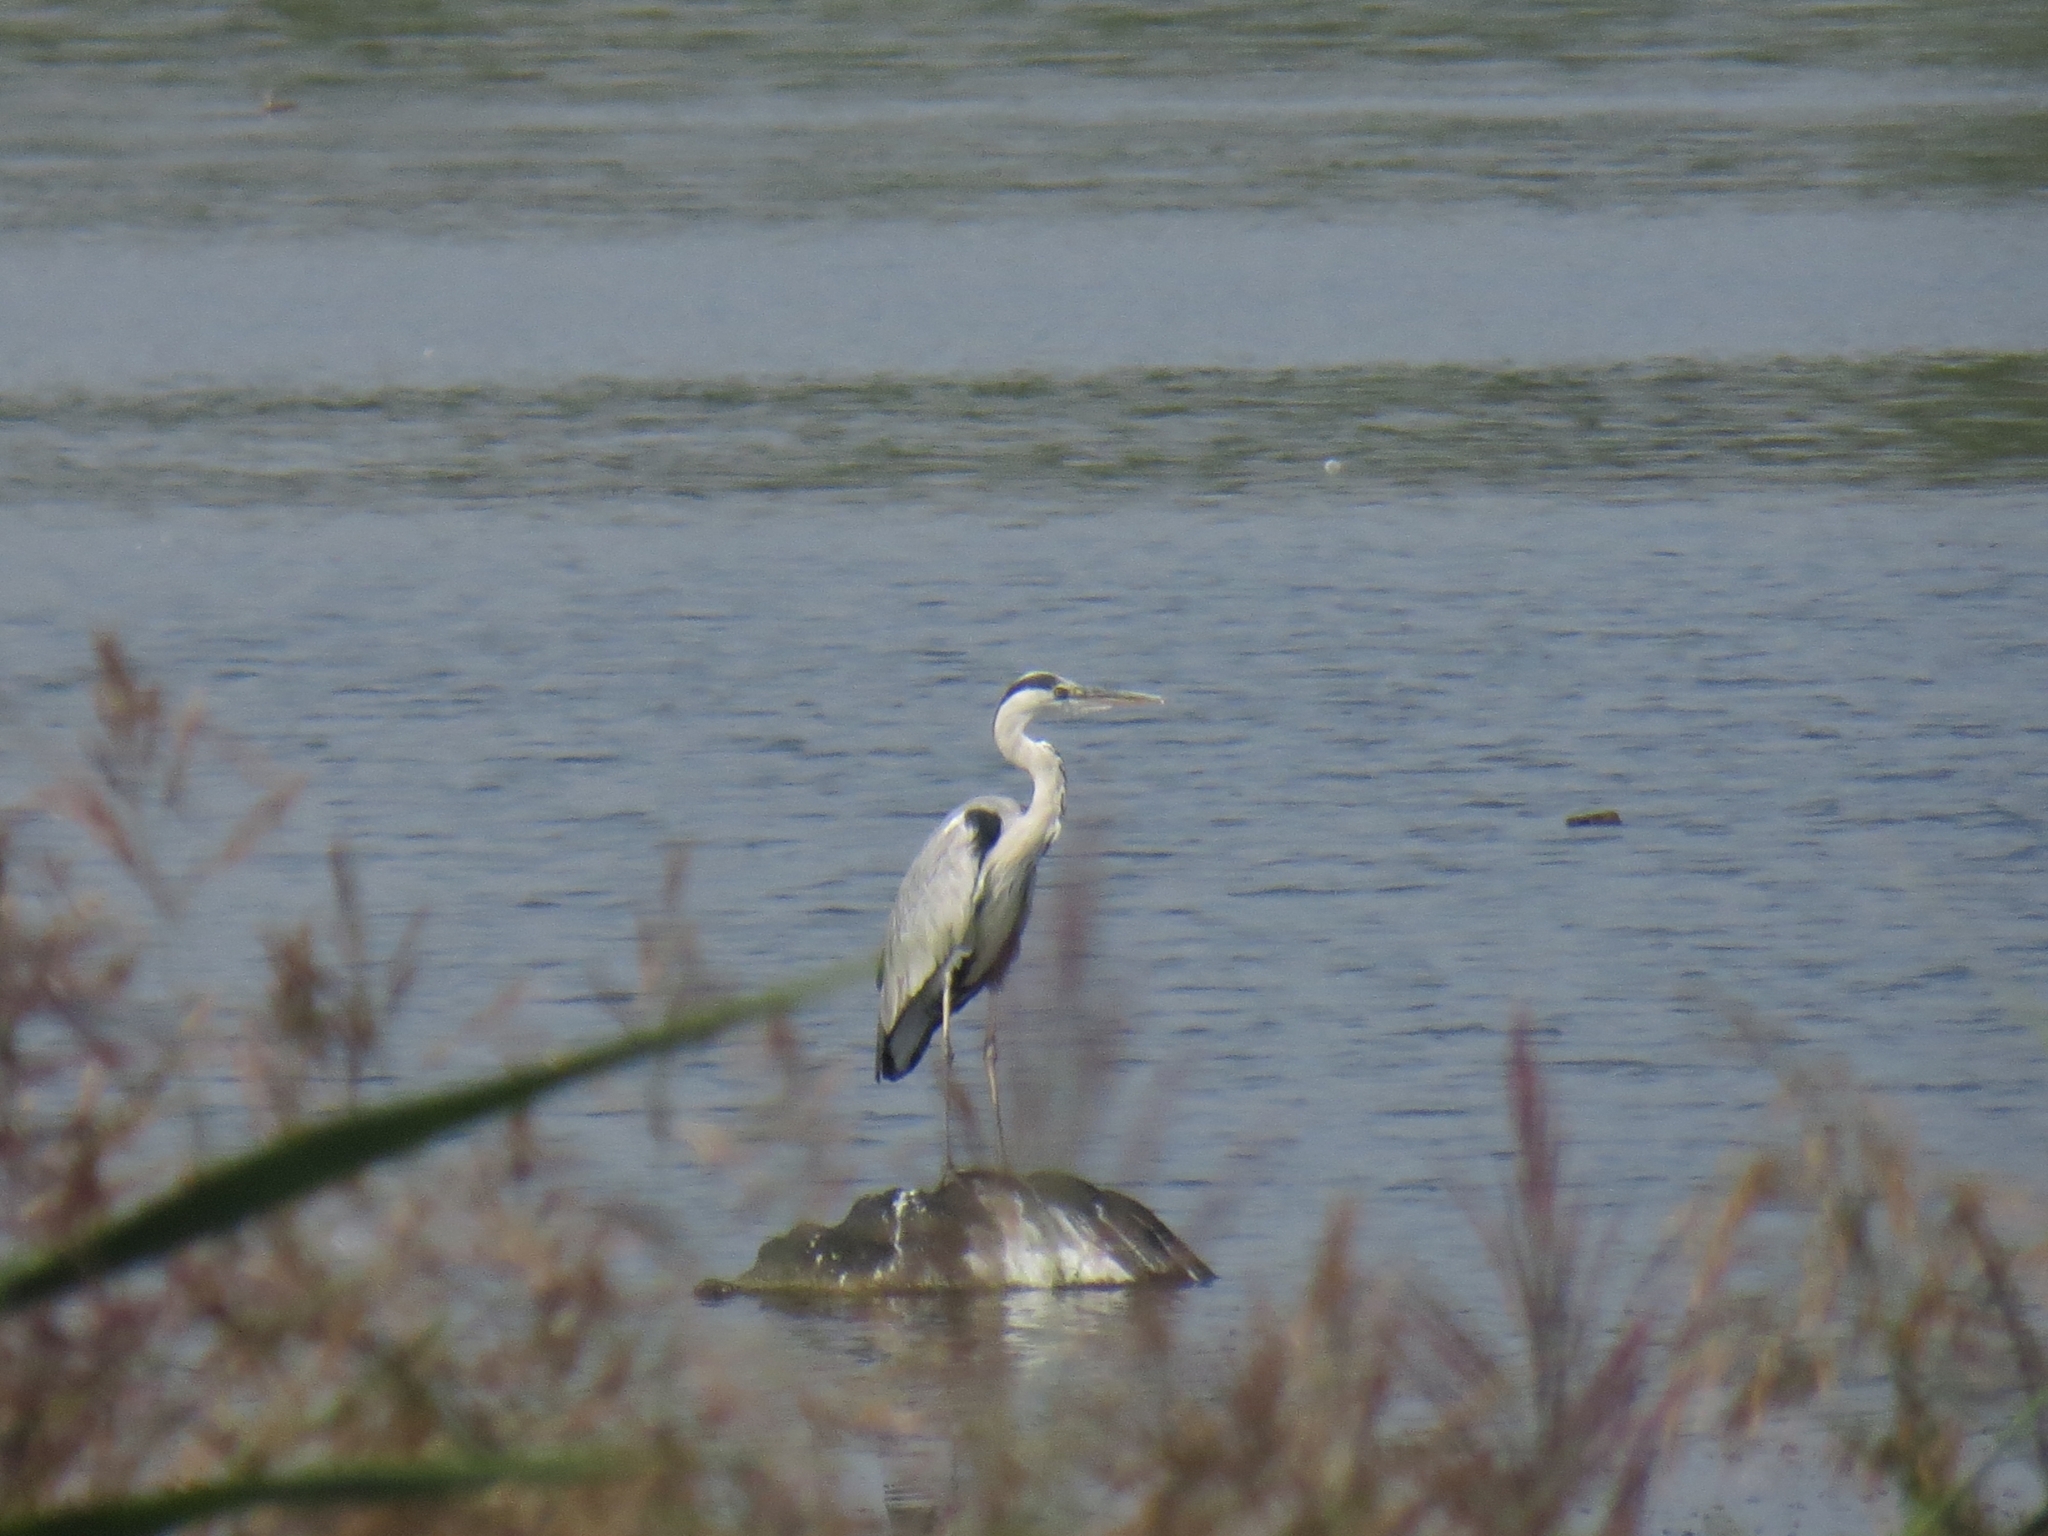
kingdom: Animalia
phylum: Chordata
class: Aves
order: Pelecaniformes
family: Ardeidae
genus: Ardea
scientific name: Ardea cinerea
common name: Grey heron
